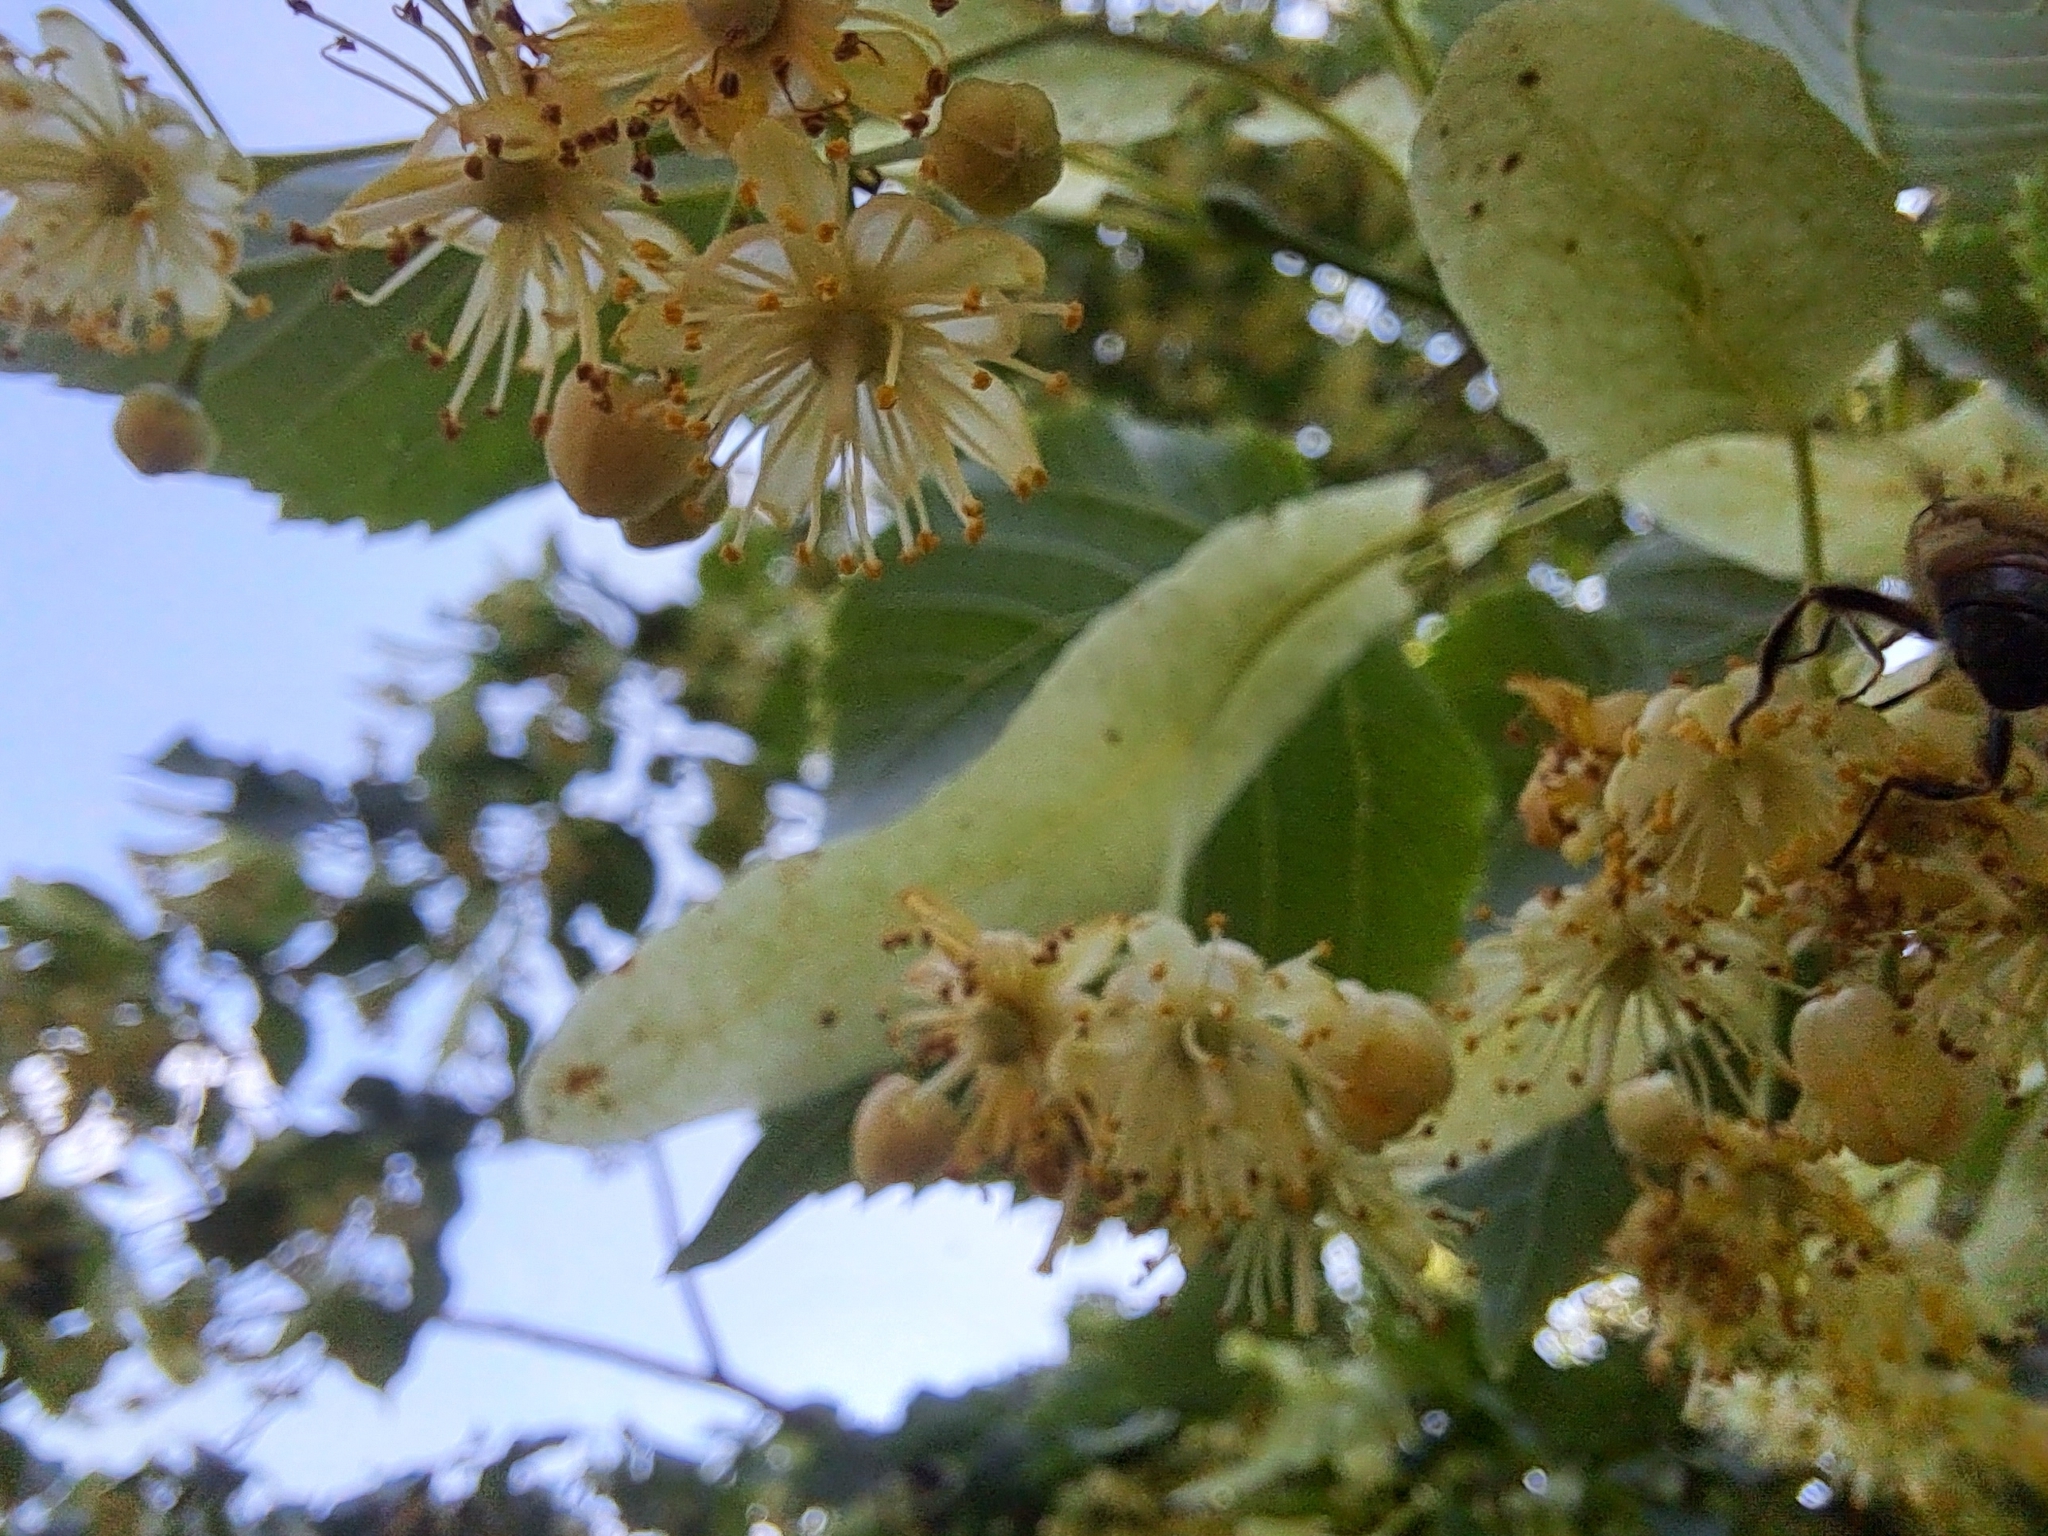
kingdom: Animalia
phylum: Arthropoda
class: Insecta
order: Diptera
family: Syrphidae
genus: Eristalis
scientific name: Eristalis tenax
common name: Drone fly
